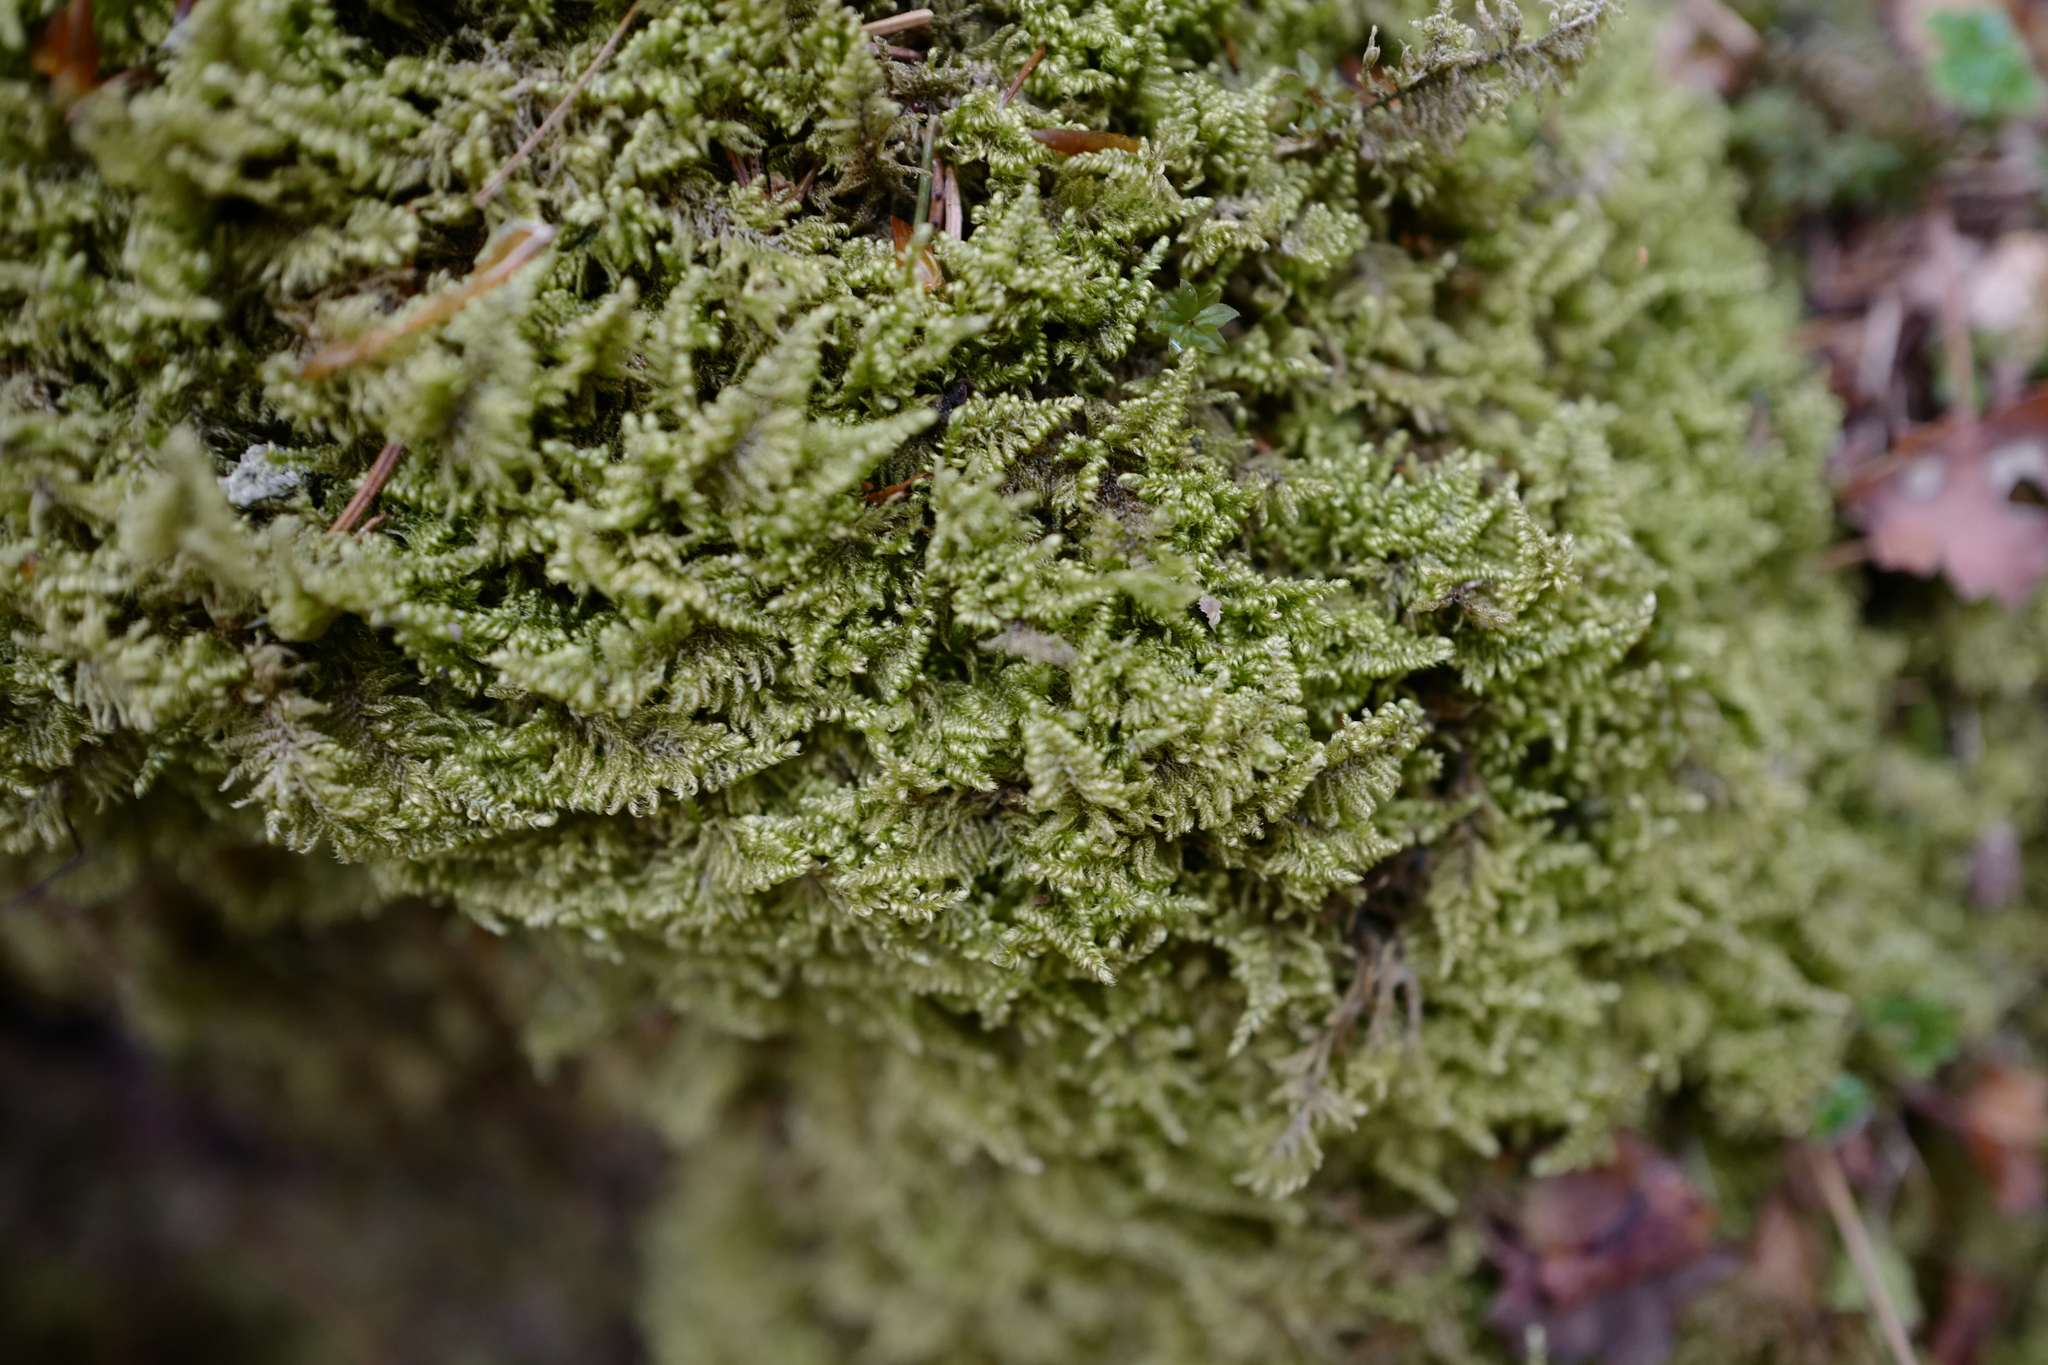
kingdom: Plantae
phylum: Bryophyta
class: Bryopsida
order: Hypnales
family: Myuriaceae
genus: Ctenidium
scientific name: Ctenidium molluscum
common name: Chalk comb-moss
